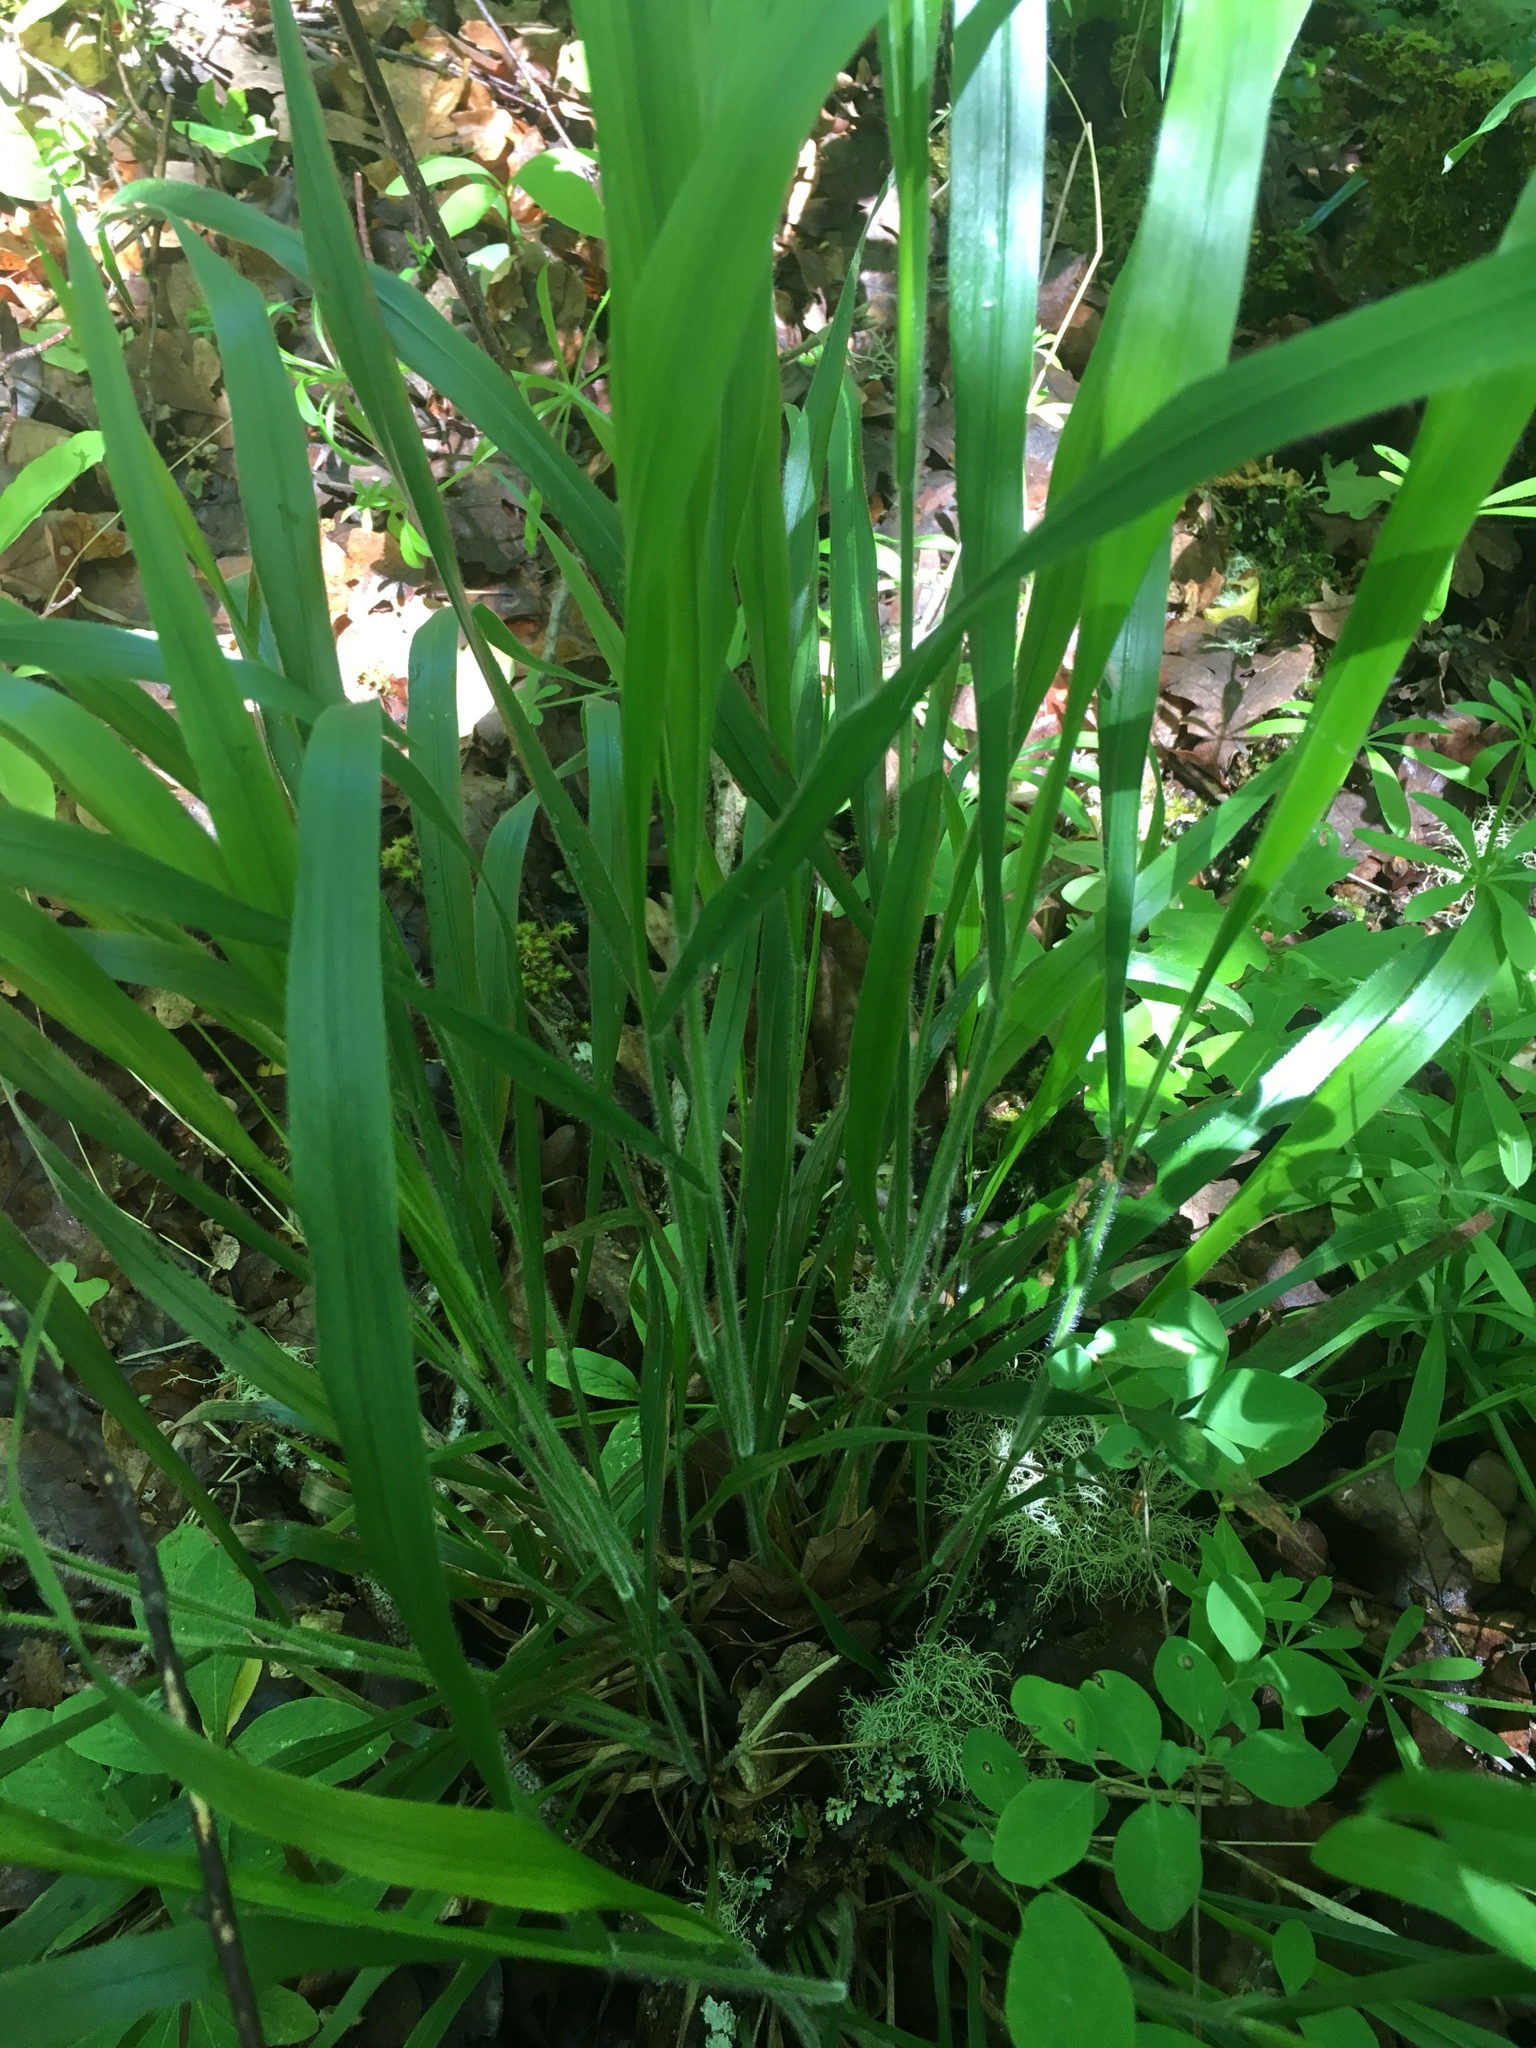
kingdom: Plantae
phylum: Tracheophyta
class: Liliopsida
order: Poales
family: Poaceae
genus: Brachypodium
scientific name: Brachypodium sylvaticum
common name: False-brome
